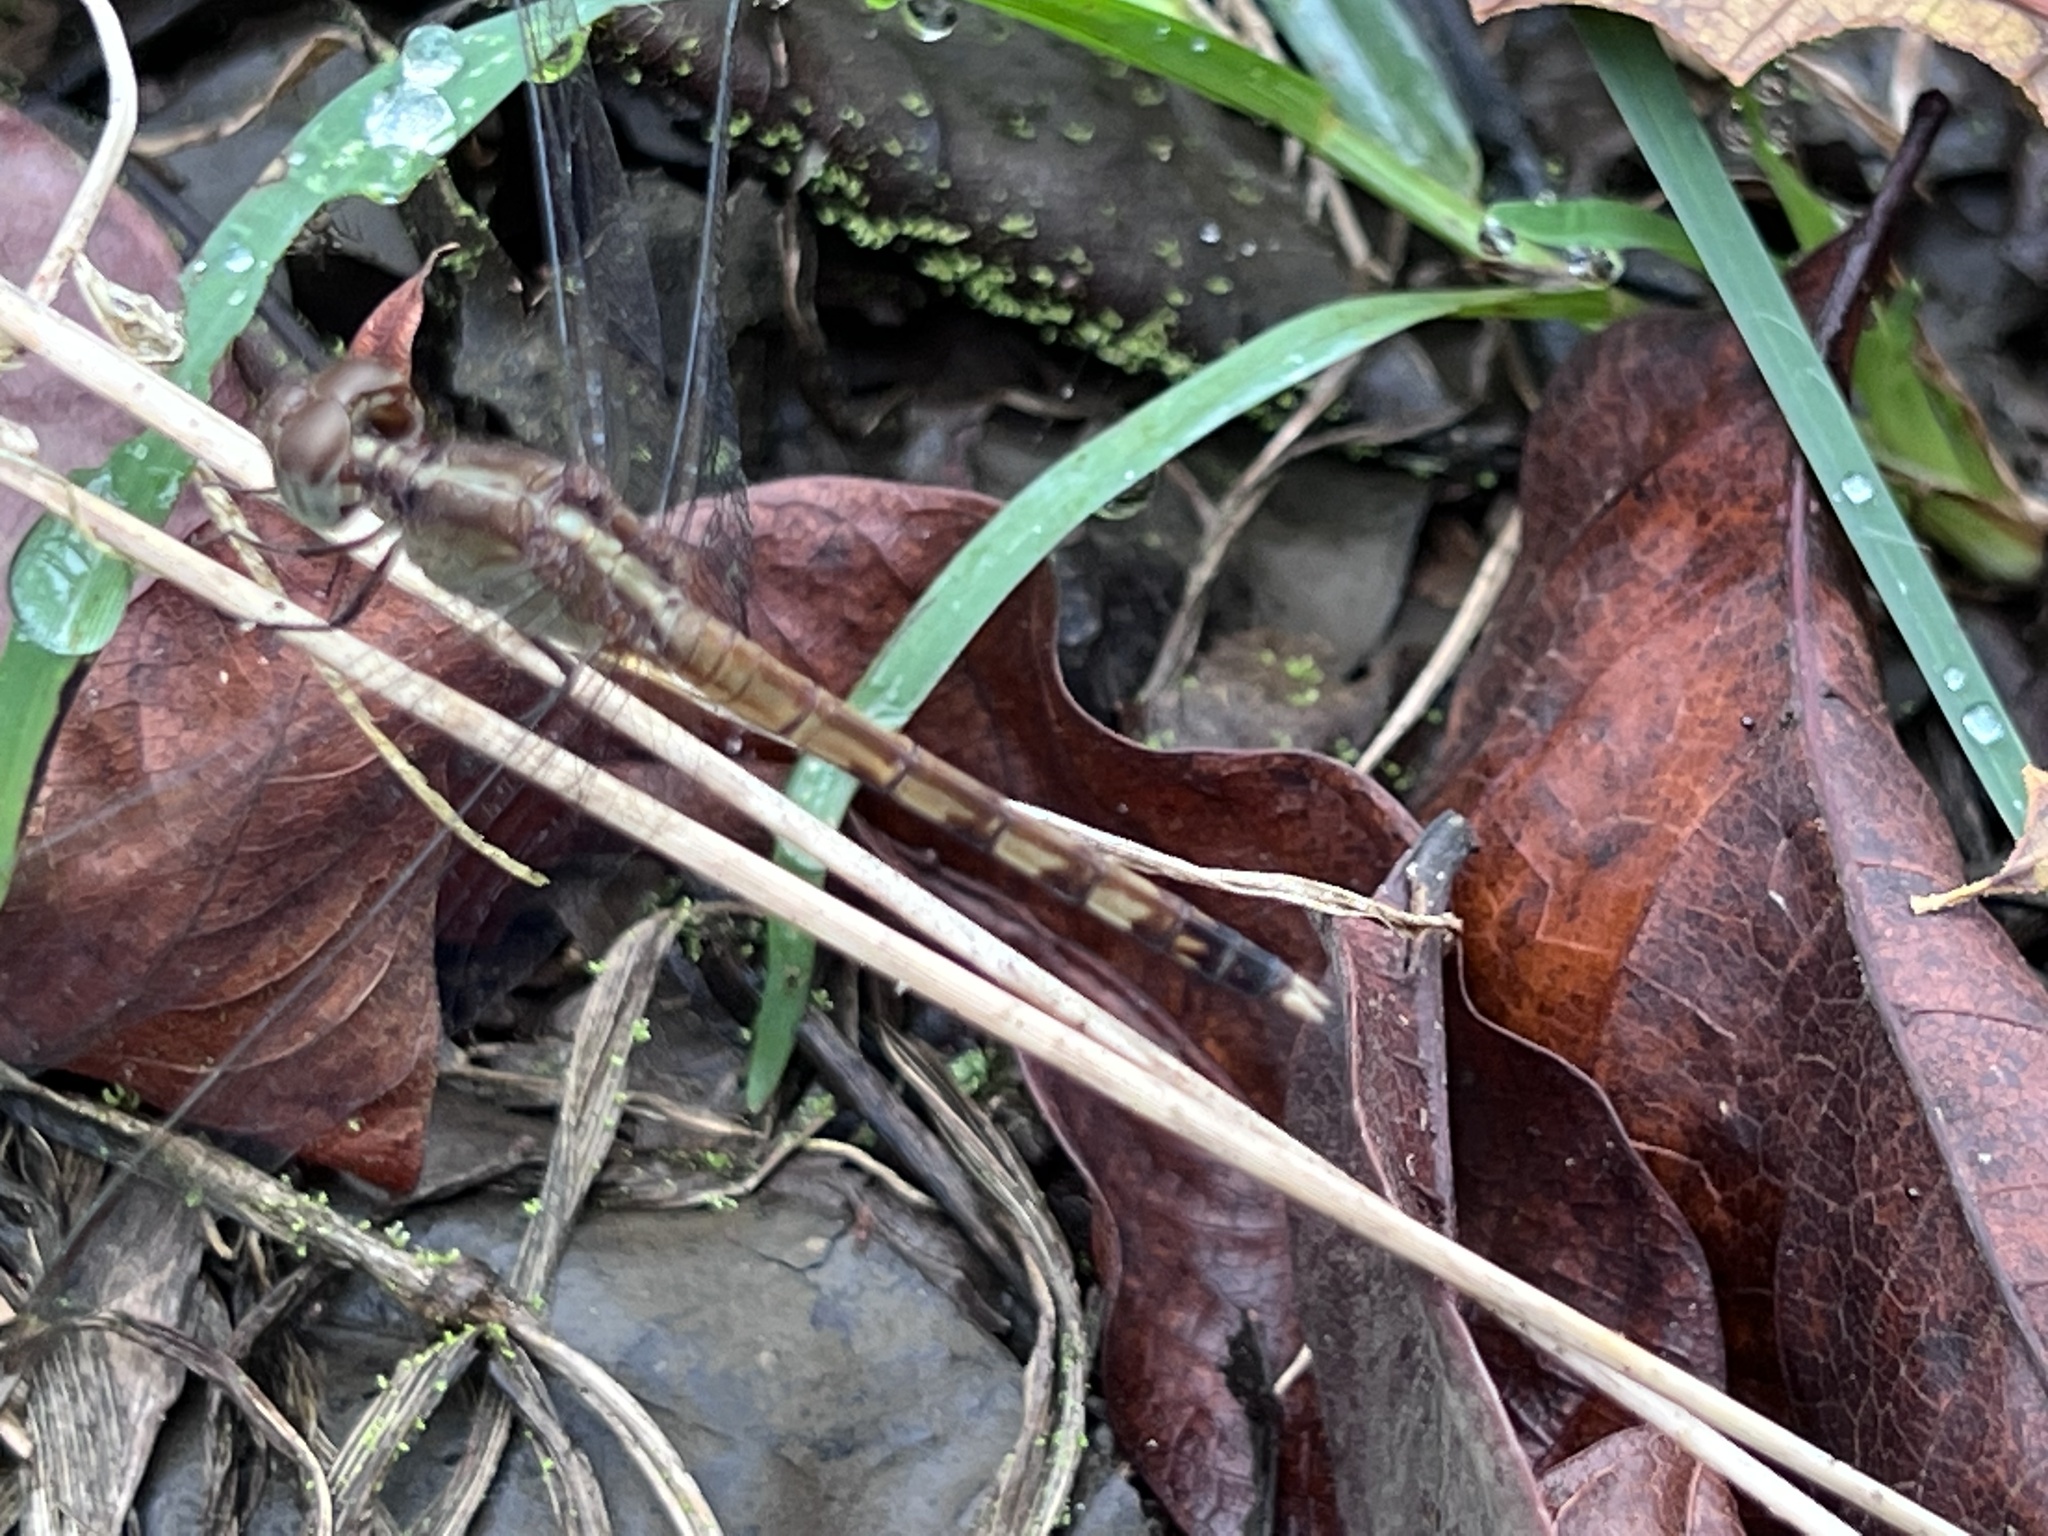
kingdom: Animalia
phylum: Arthropoda
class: Insecta
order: Odonata
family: Libellulidae
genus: Erythrodiplax
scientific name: Erythrodiplax umbrata
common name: Band-winged dragonlet
